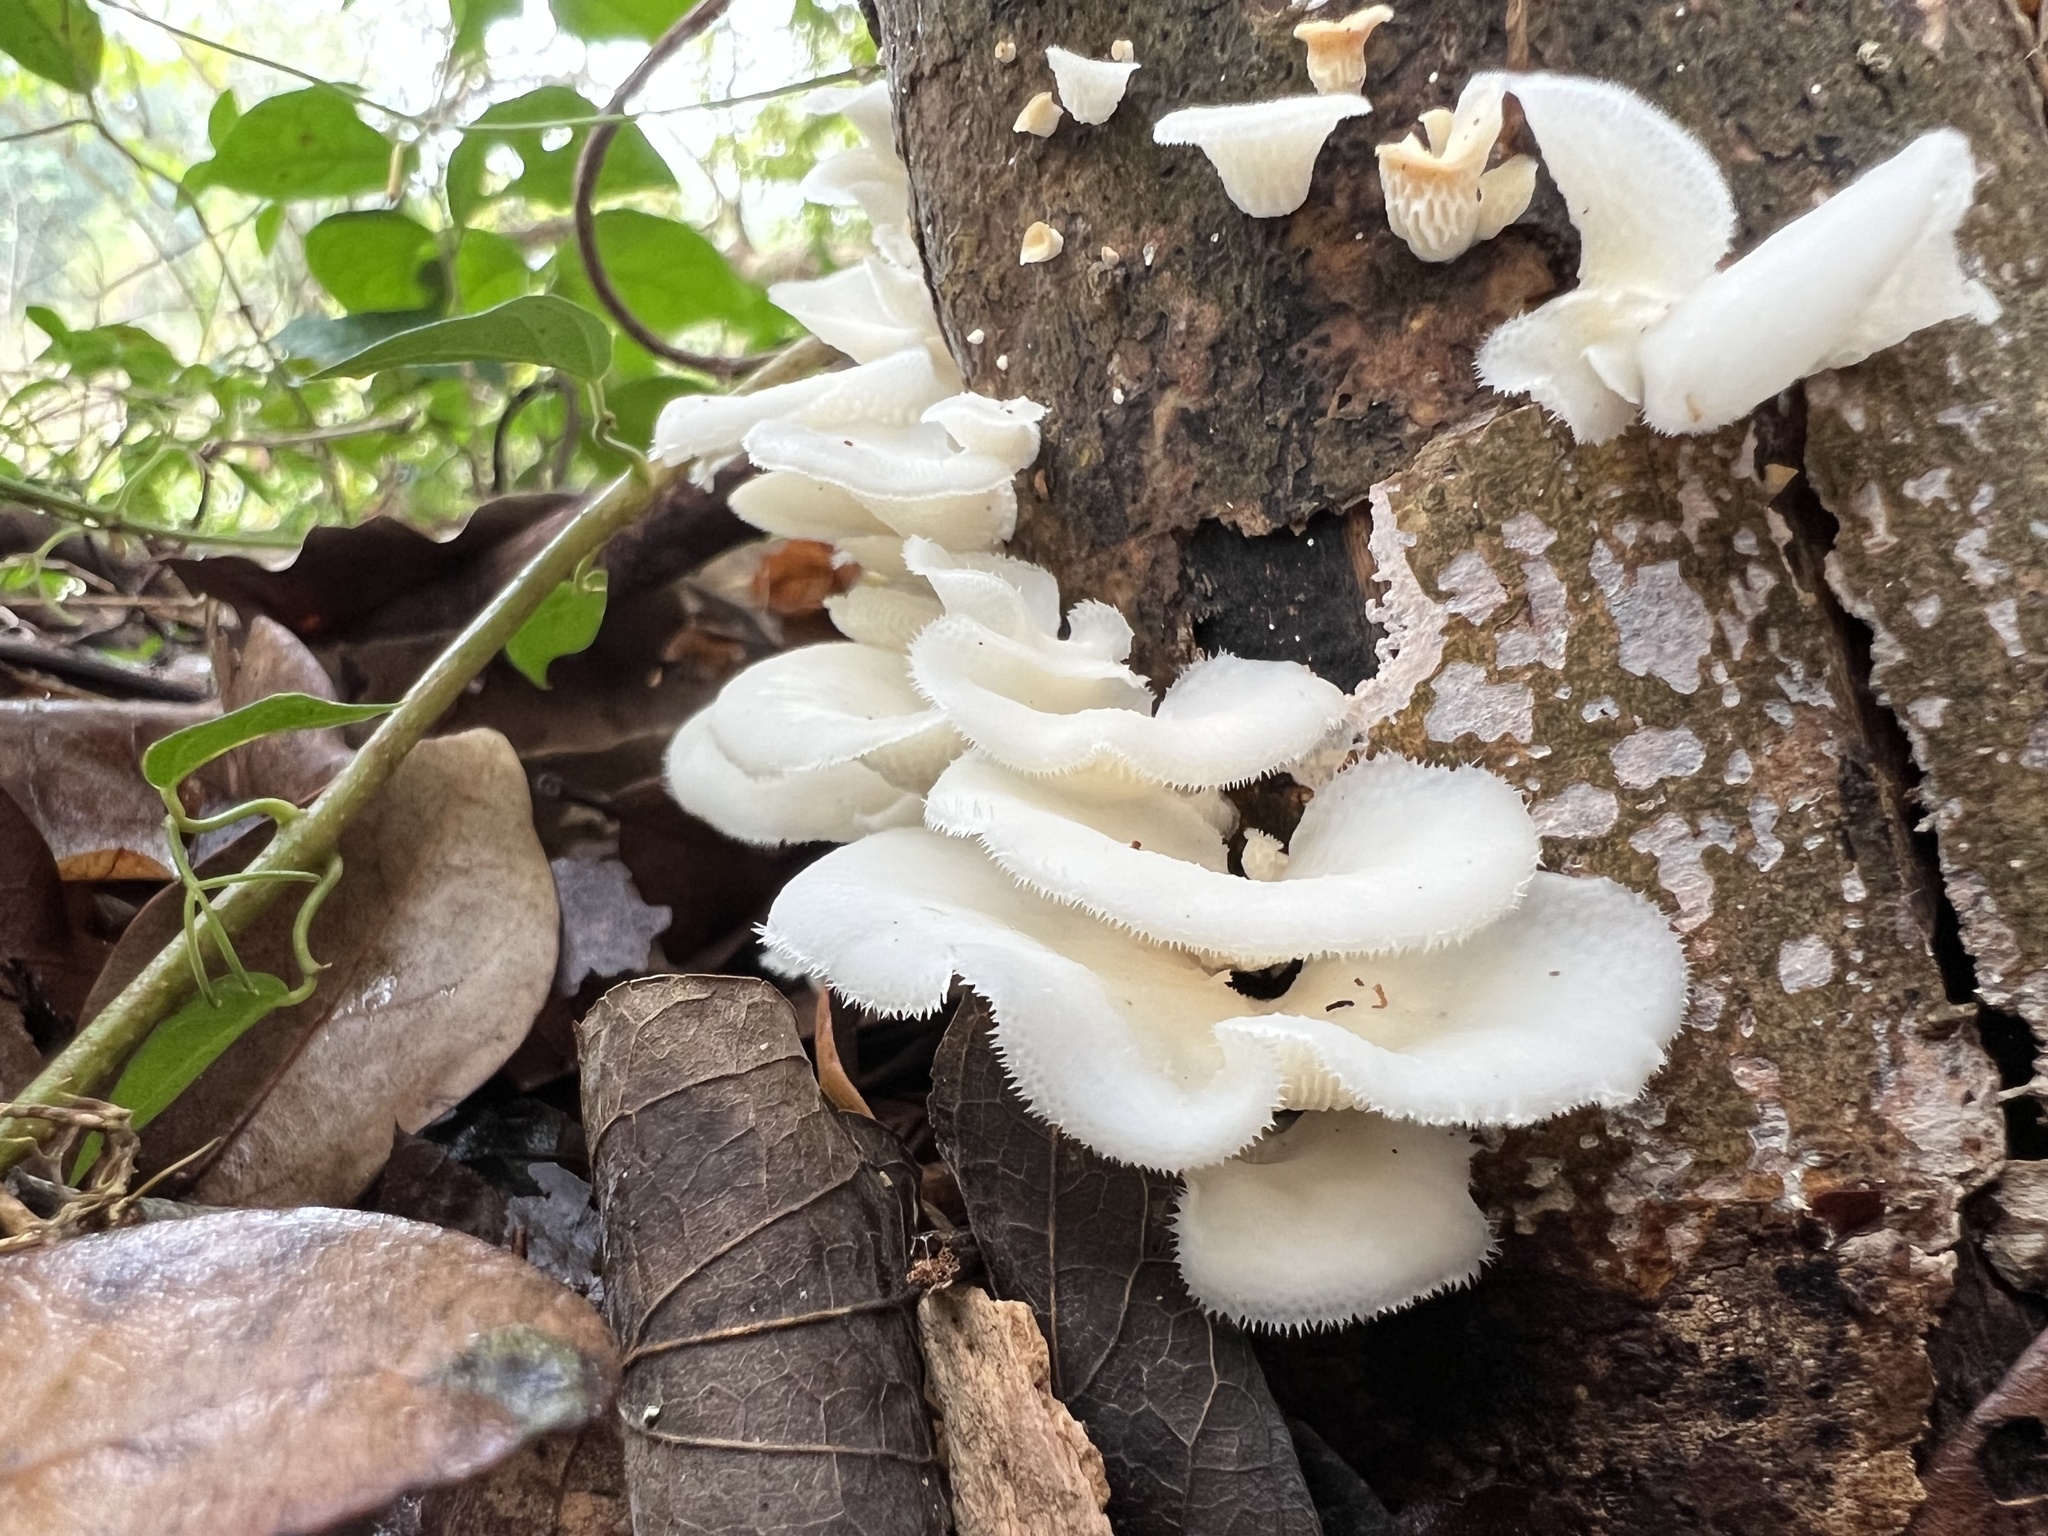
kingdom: Fungi
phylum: Basidiomycota
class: Agaricomycetes
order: Polyporales
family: Polyporaceae
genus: Favolus
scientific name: Favolus tenuiculus
